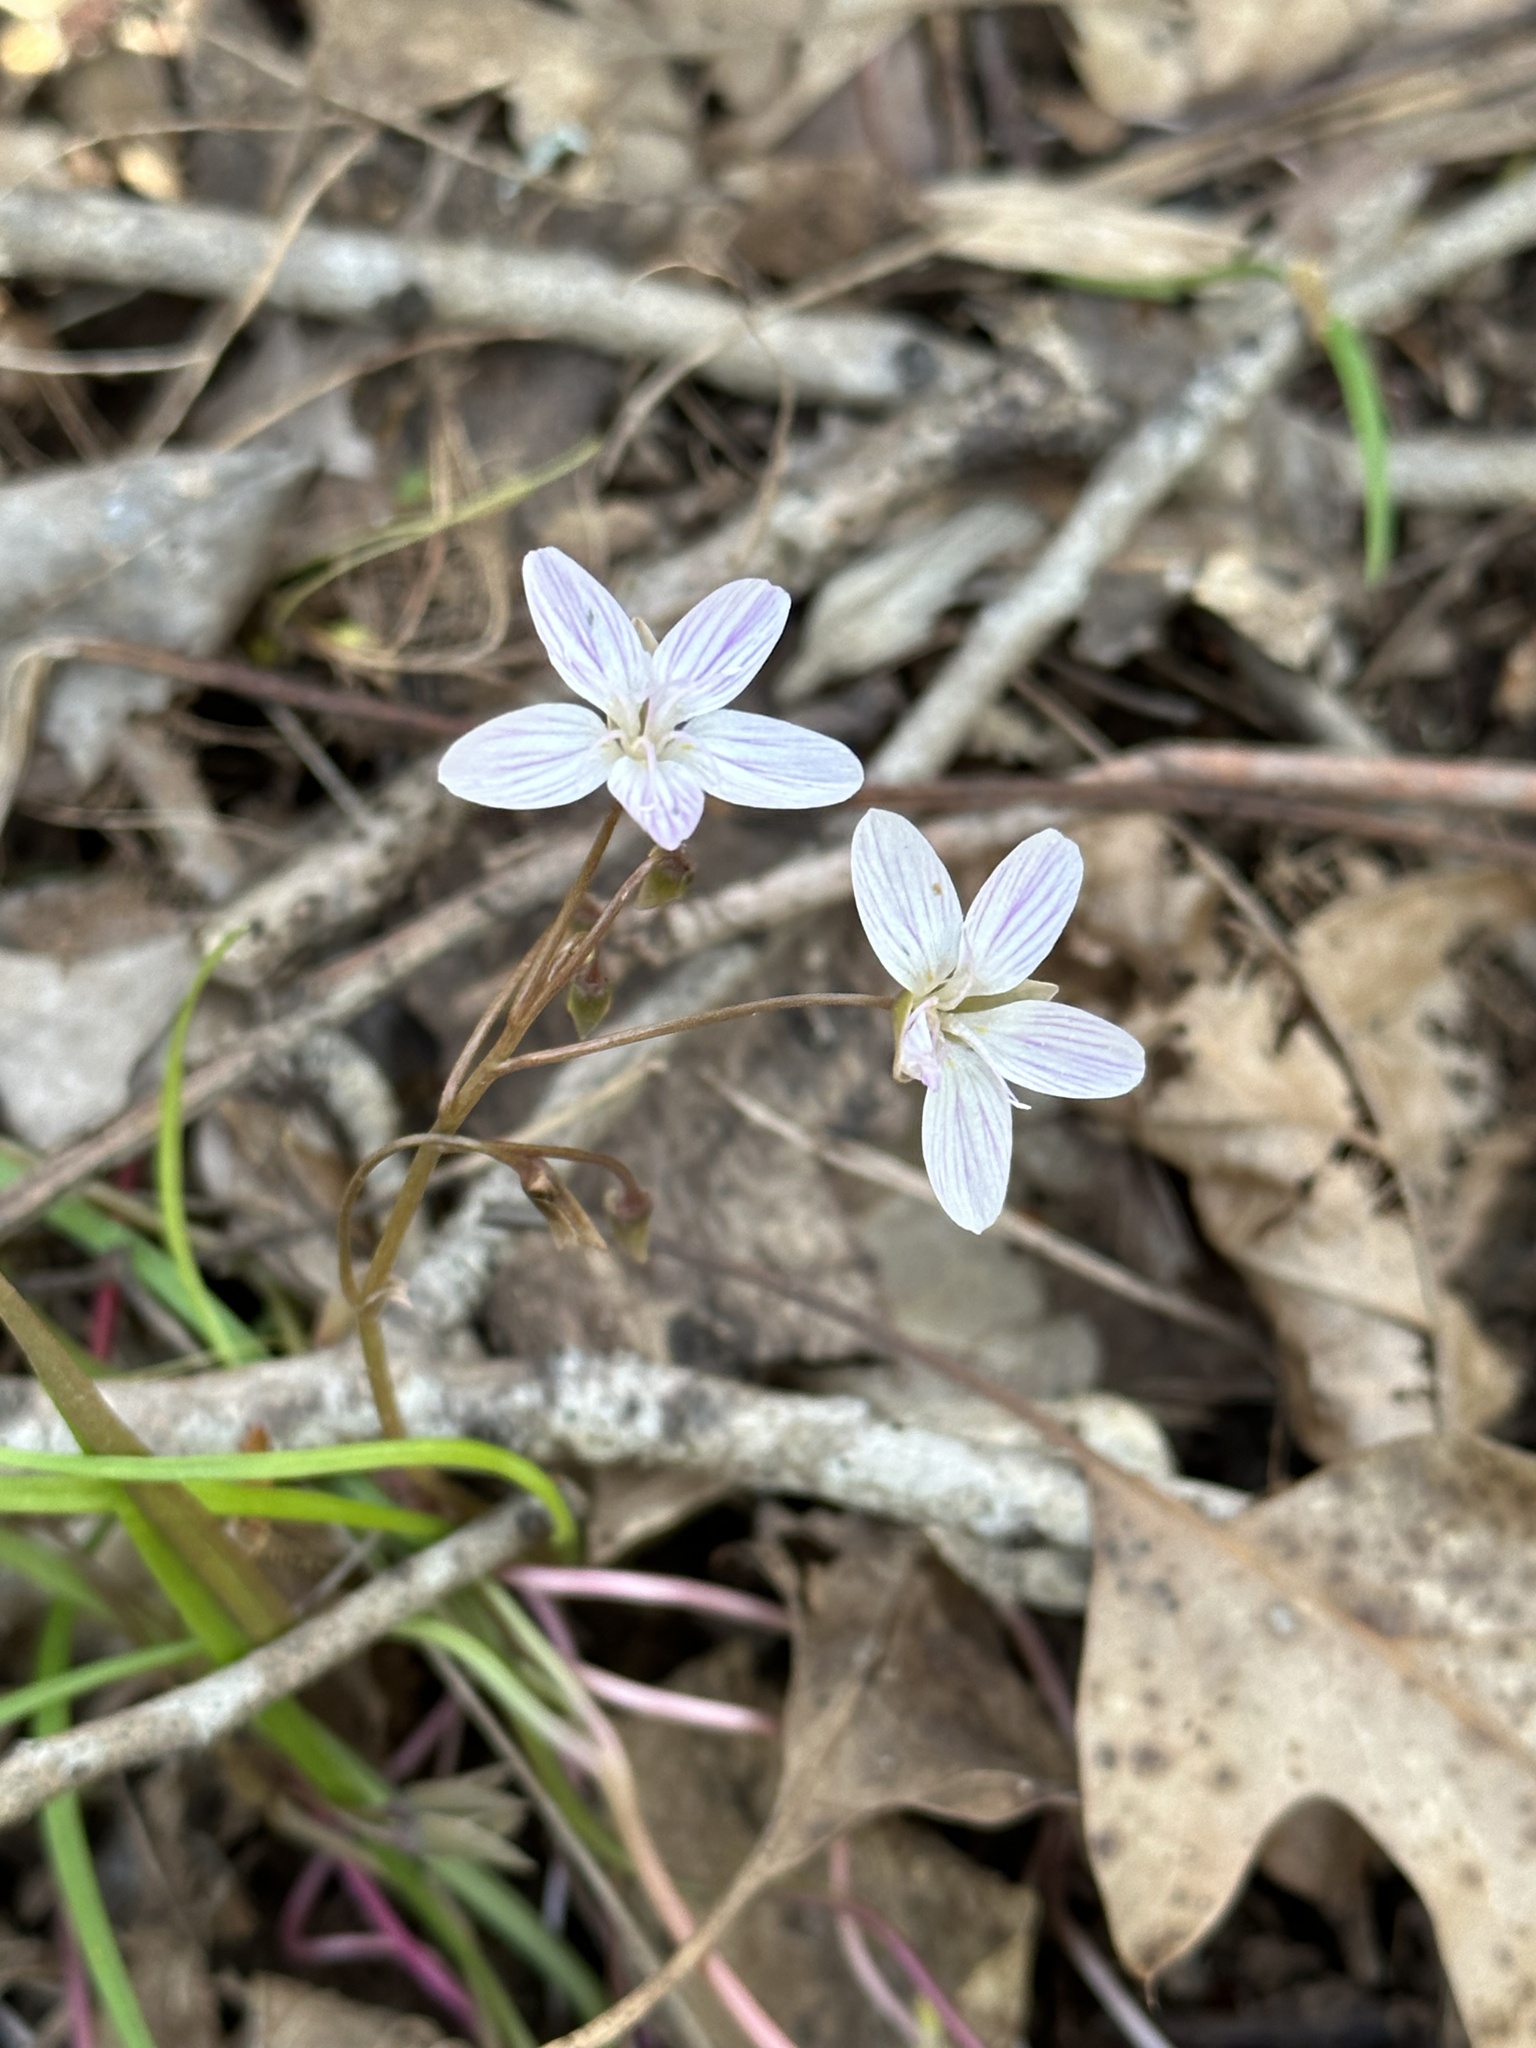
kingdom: Plantae
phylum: Tracheophyta
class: Magnoliopsida
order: Caryophyllales
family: Montiaceae
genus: Claytonia
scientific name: Claytonia virginica
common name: Virginia springbeauty
